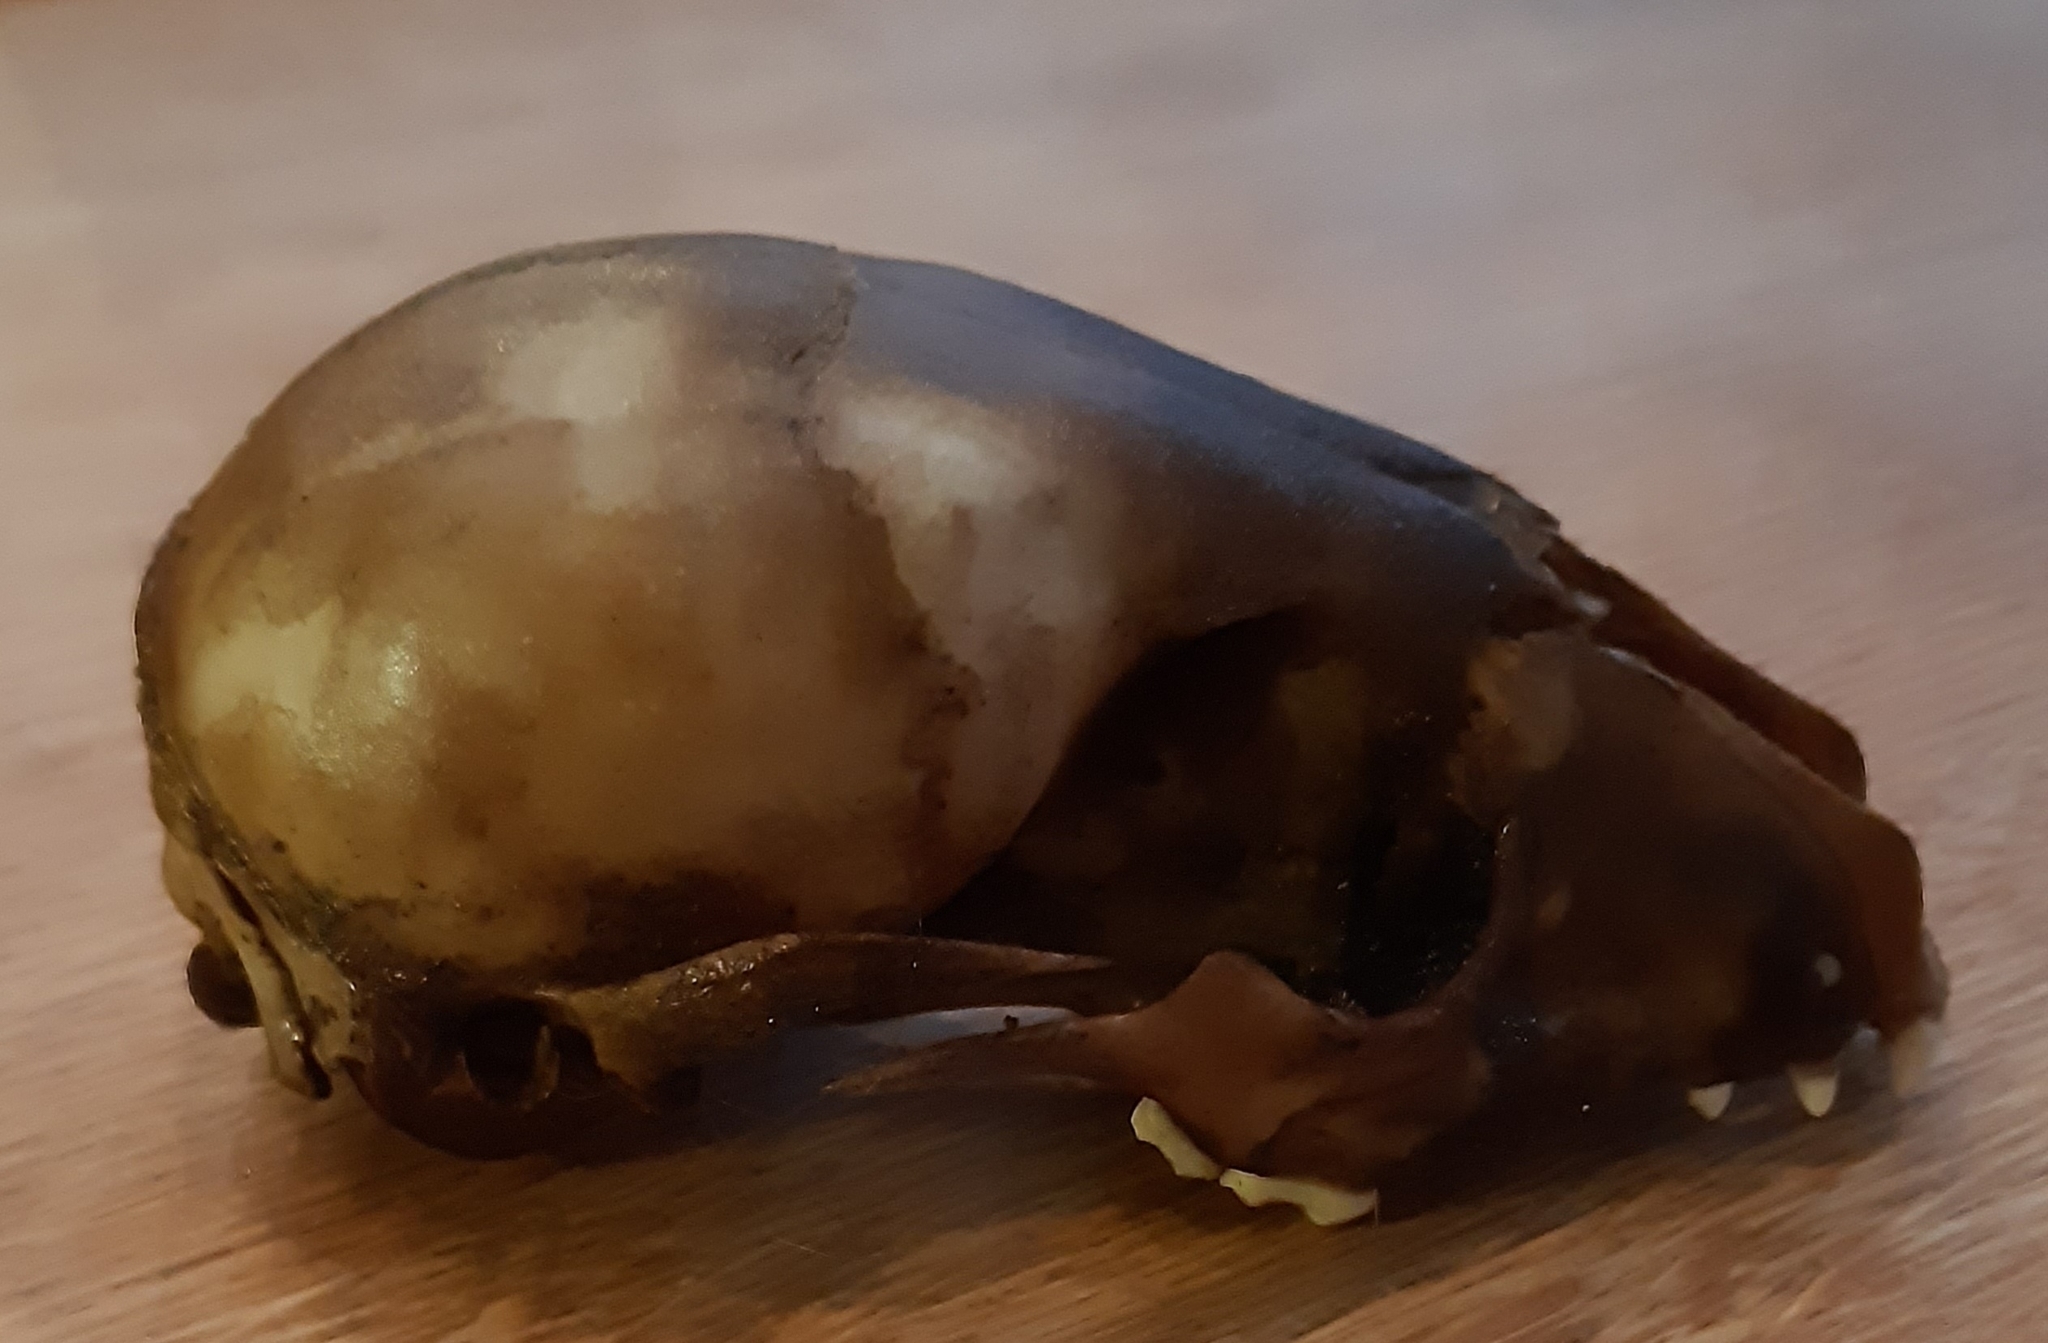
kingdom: Animalia
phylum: Chordata
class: Mammalia
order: Carnivora
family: Procyonidae
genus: Procyon
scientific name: Procyon lotor
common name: Raccoon
